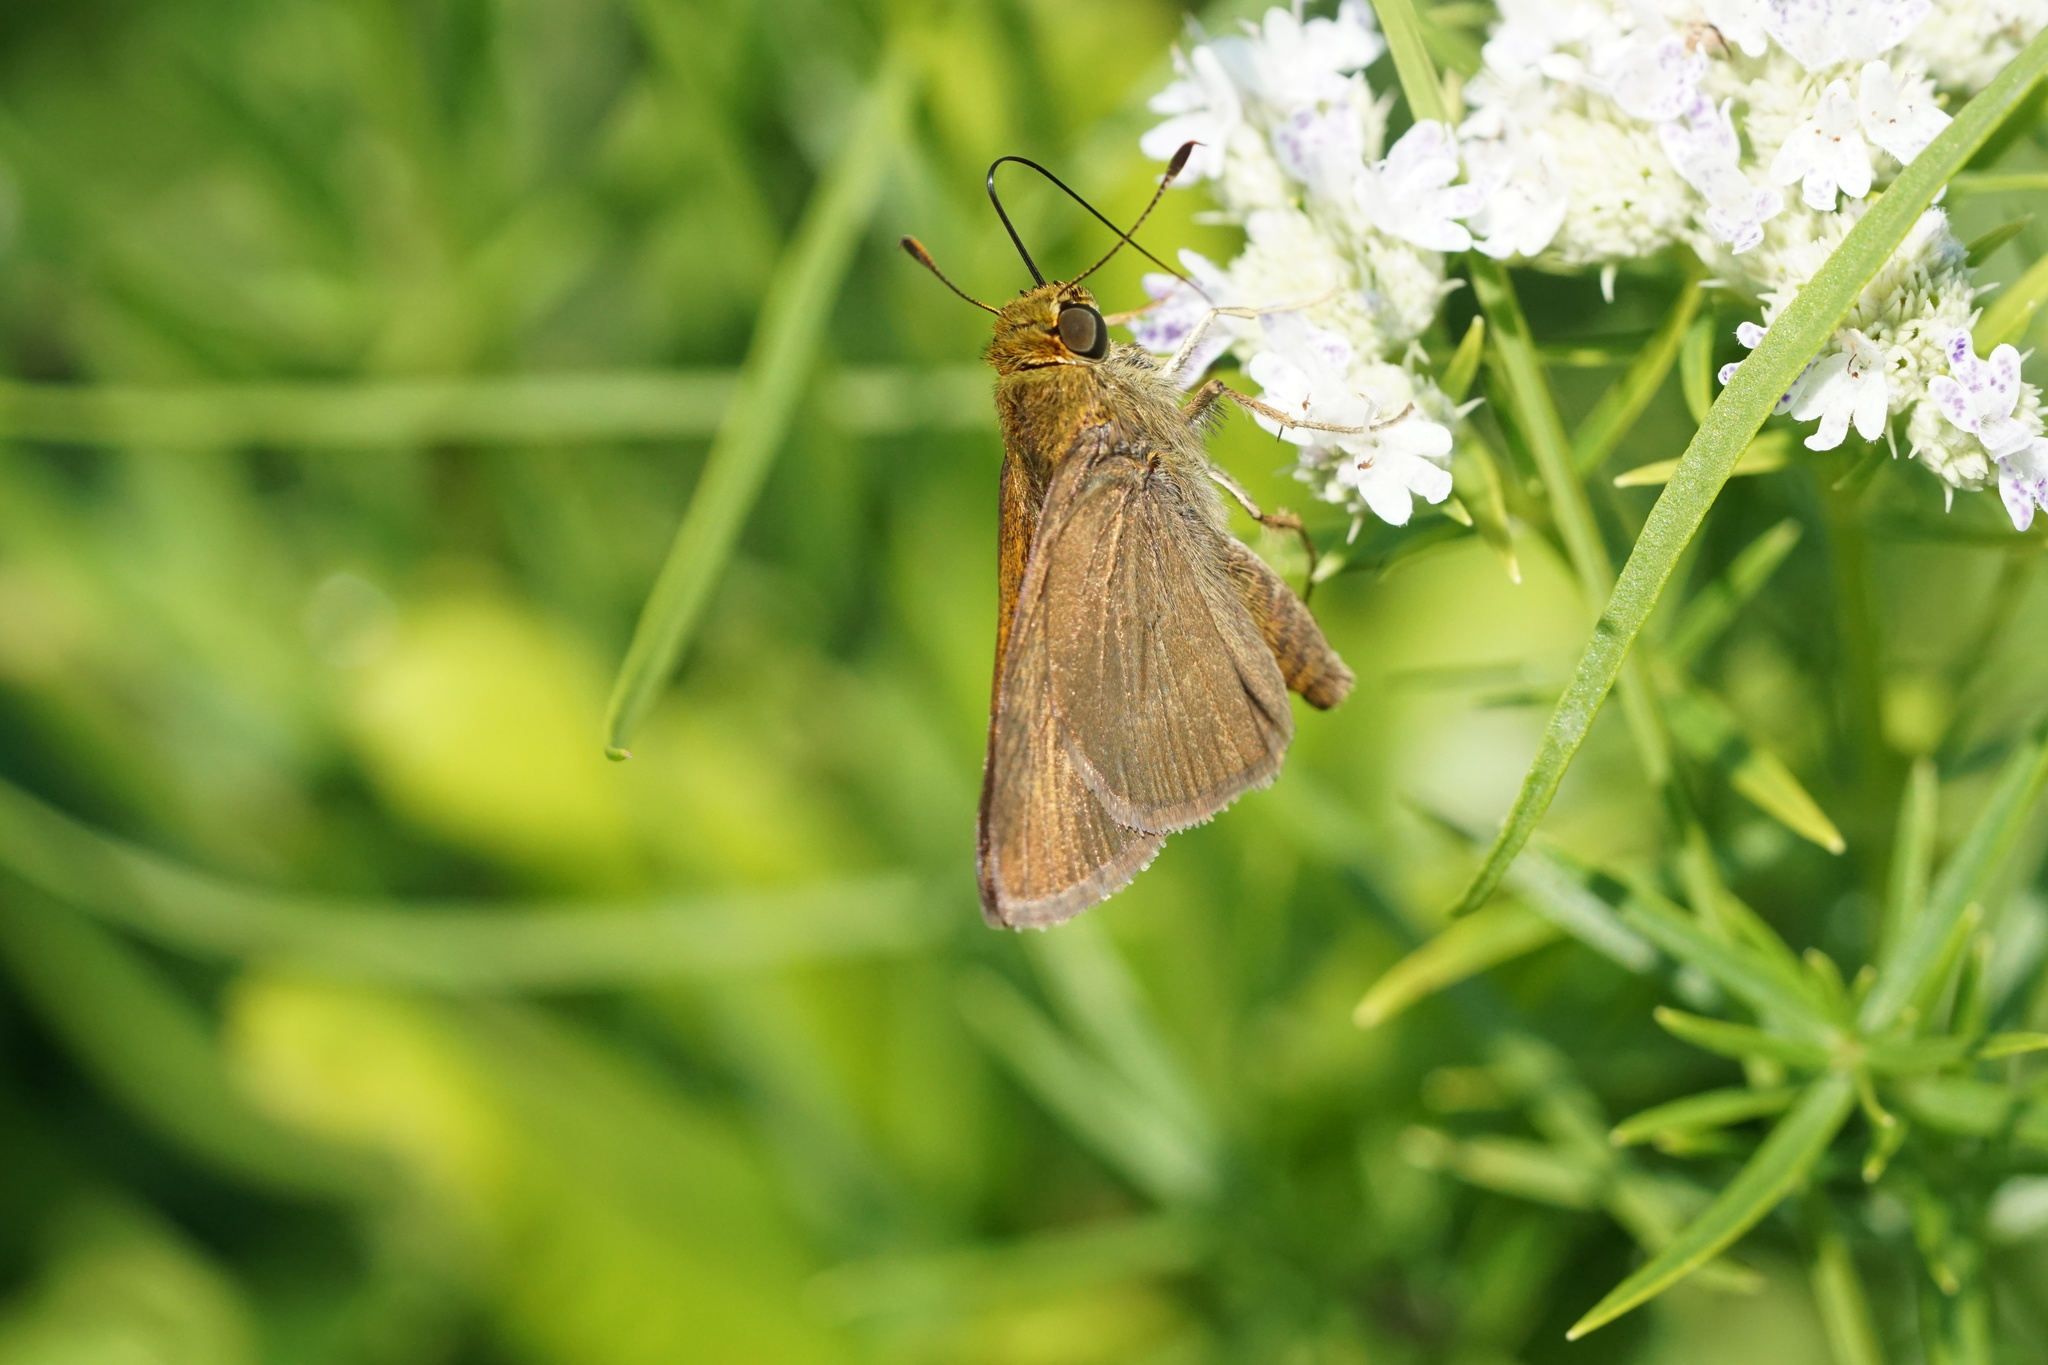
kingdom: Animalia
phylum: Arthropoda
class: Insecta
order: Lepidoptera
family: Hesperiidae
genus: Euphyes
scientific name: Euphyes vestris
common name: Dun skipper
